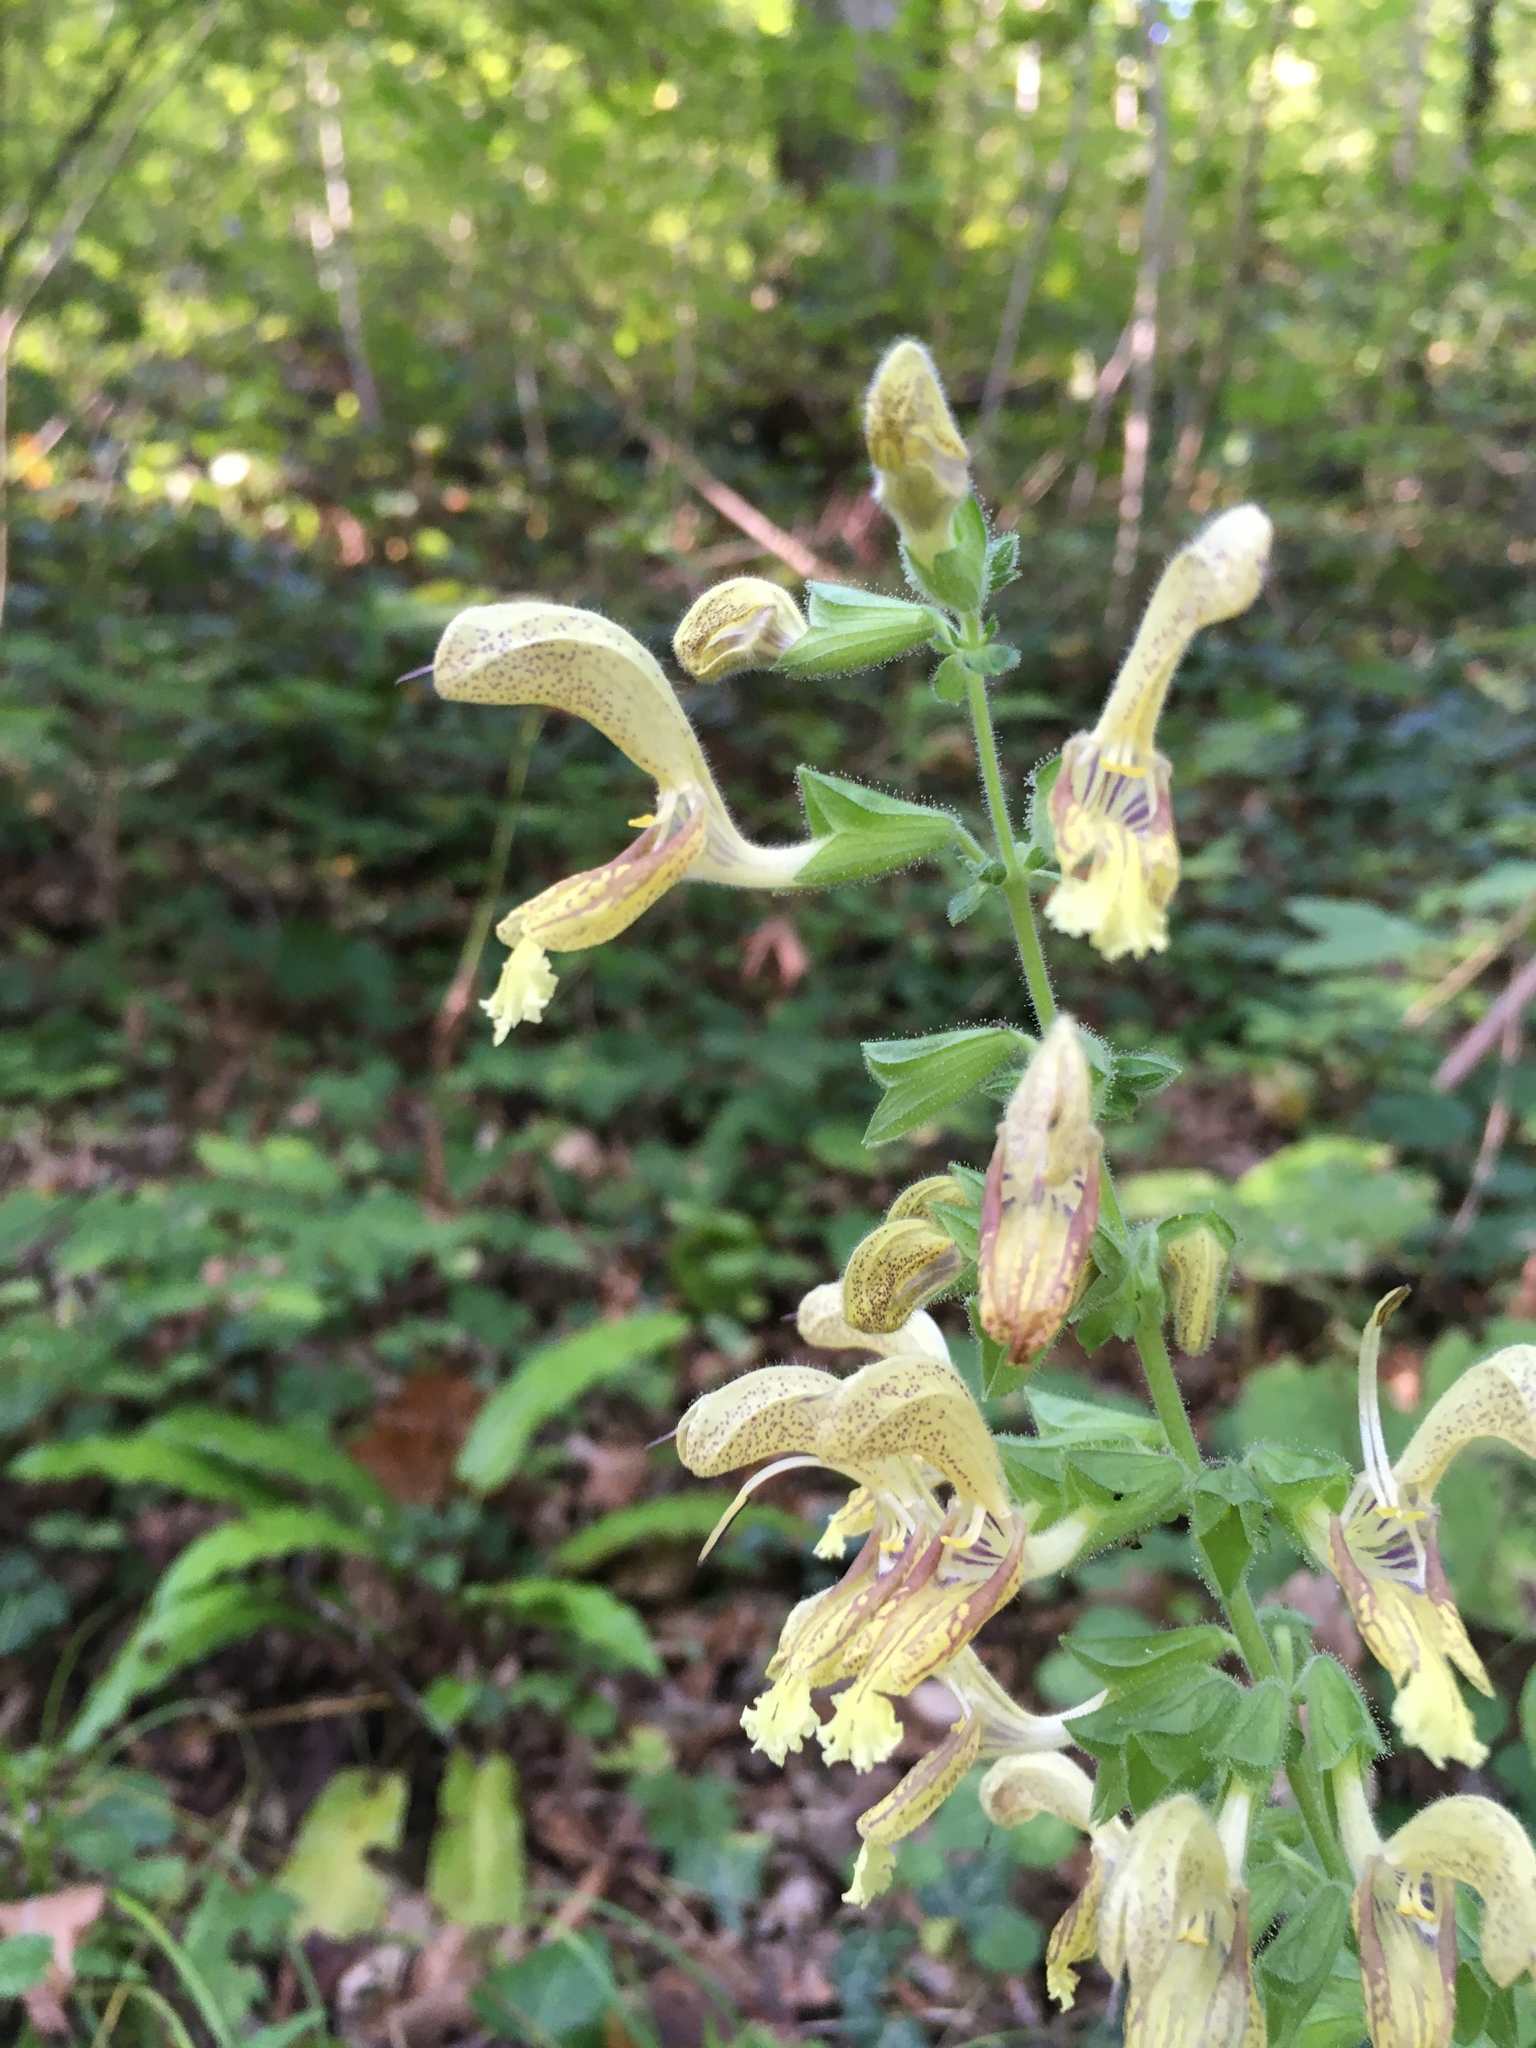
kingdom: Plantae
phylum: Tracheophyta
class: Magnoliopsida
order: Lamiales
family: Lamiaceae
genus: Salvia
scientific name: Salvia glutinosa
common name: Sticky clary
